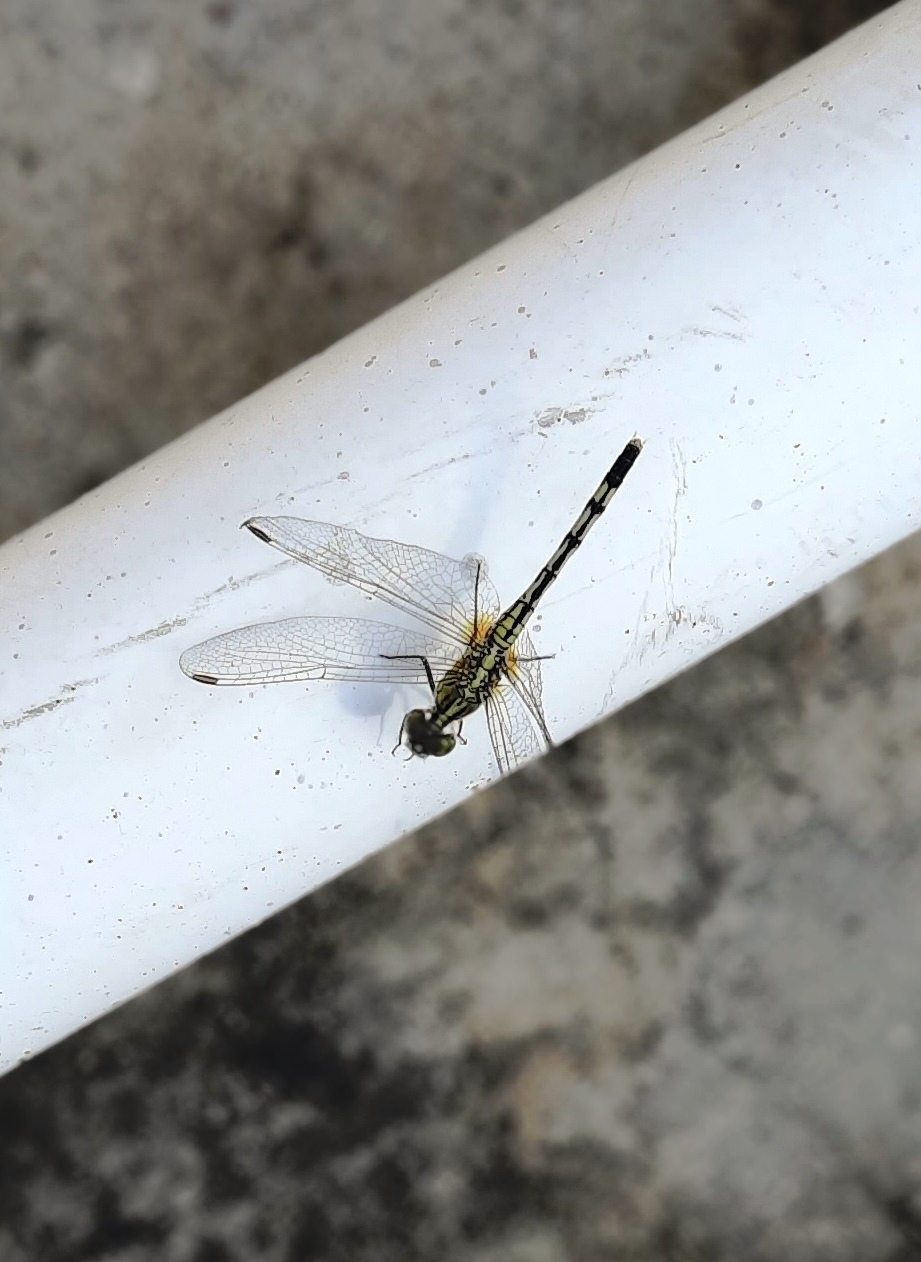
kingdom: Animalia
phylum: Arthropoda
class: Insecta
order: Odonata
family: Libellulidae
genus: Diplacodes
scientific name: Diplacodes trivialis
